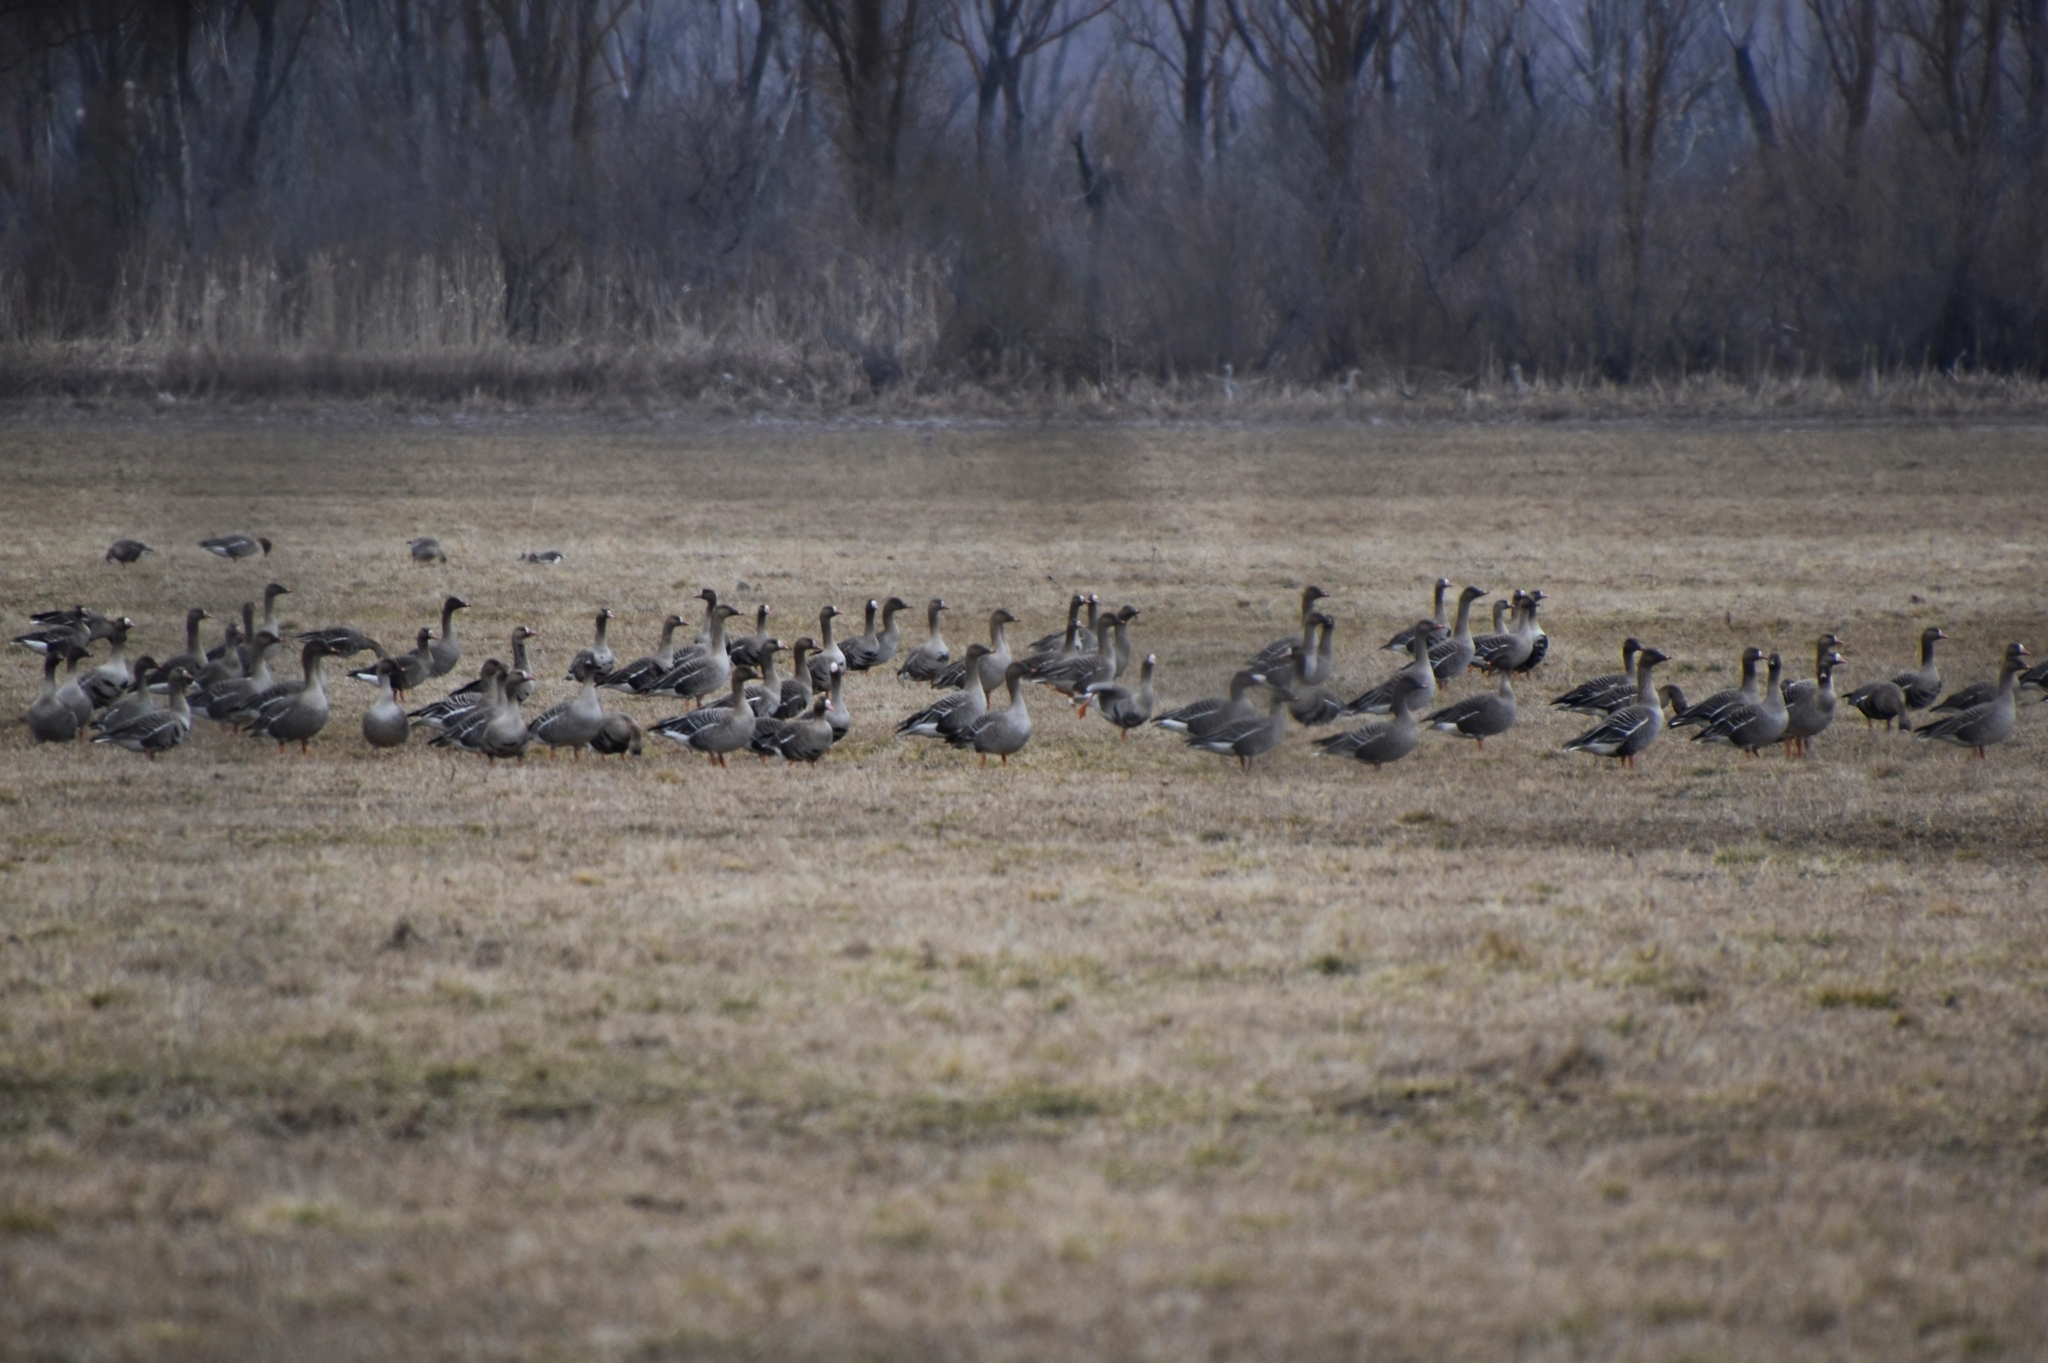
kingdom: Animalia
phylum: Chordata
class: Aves
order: Anseriformes
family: Anatidae
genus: Anser
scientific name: Anser fabalis
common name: Bean goose
